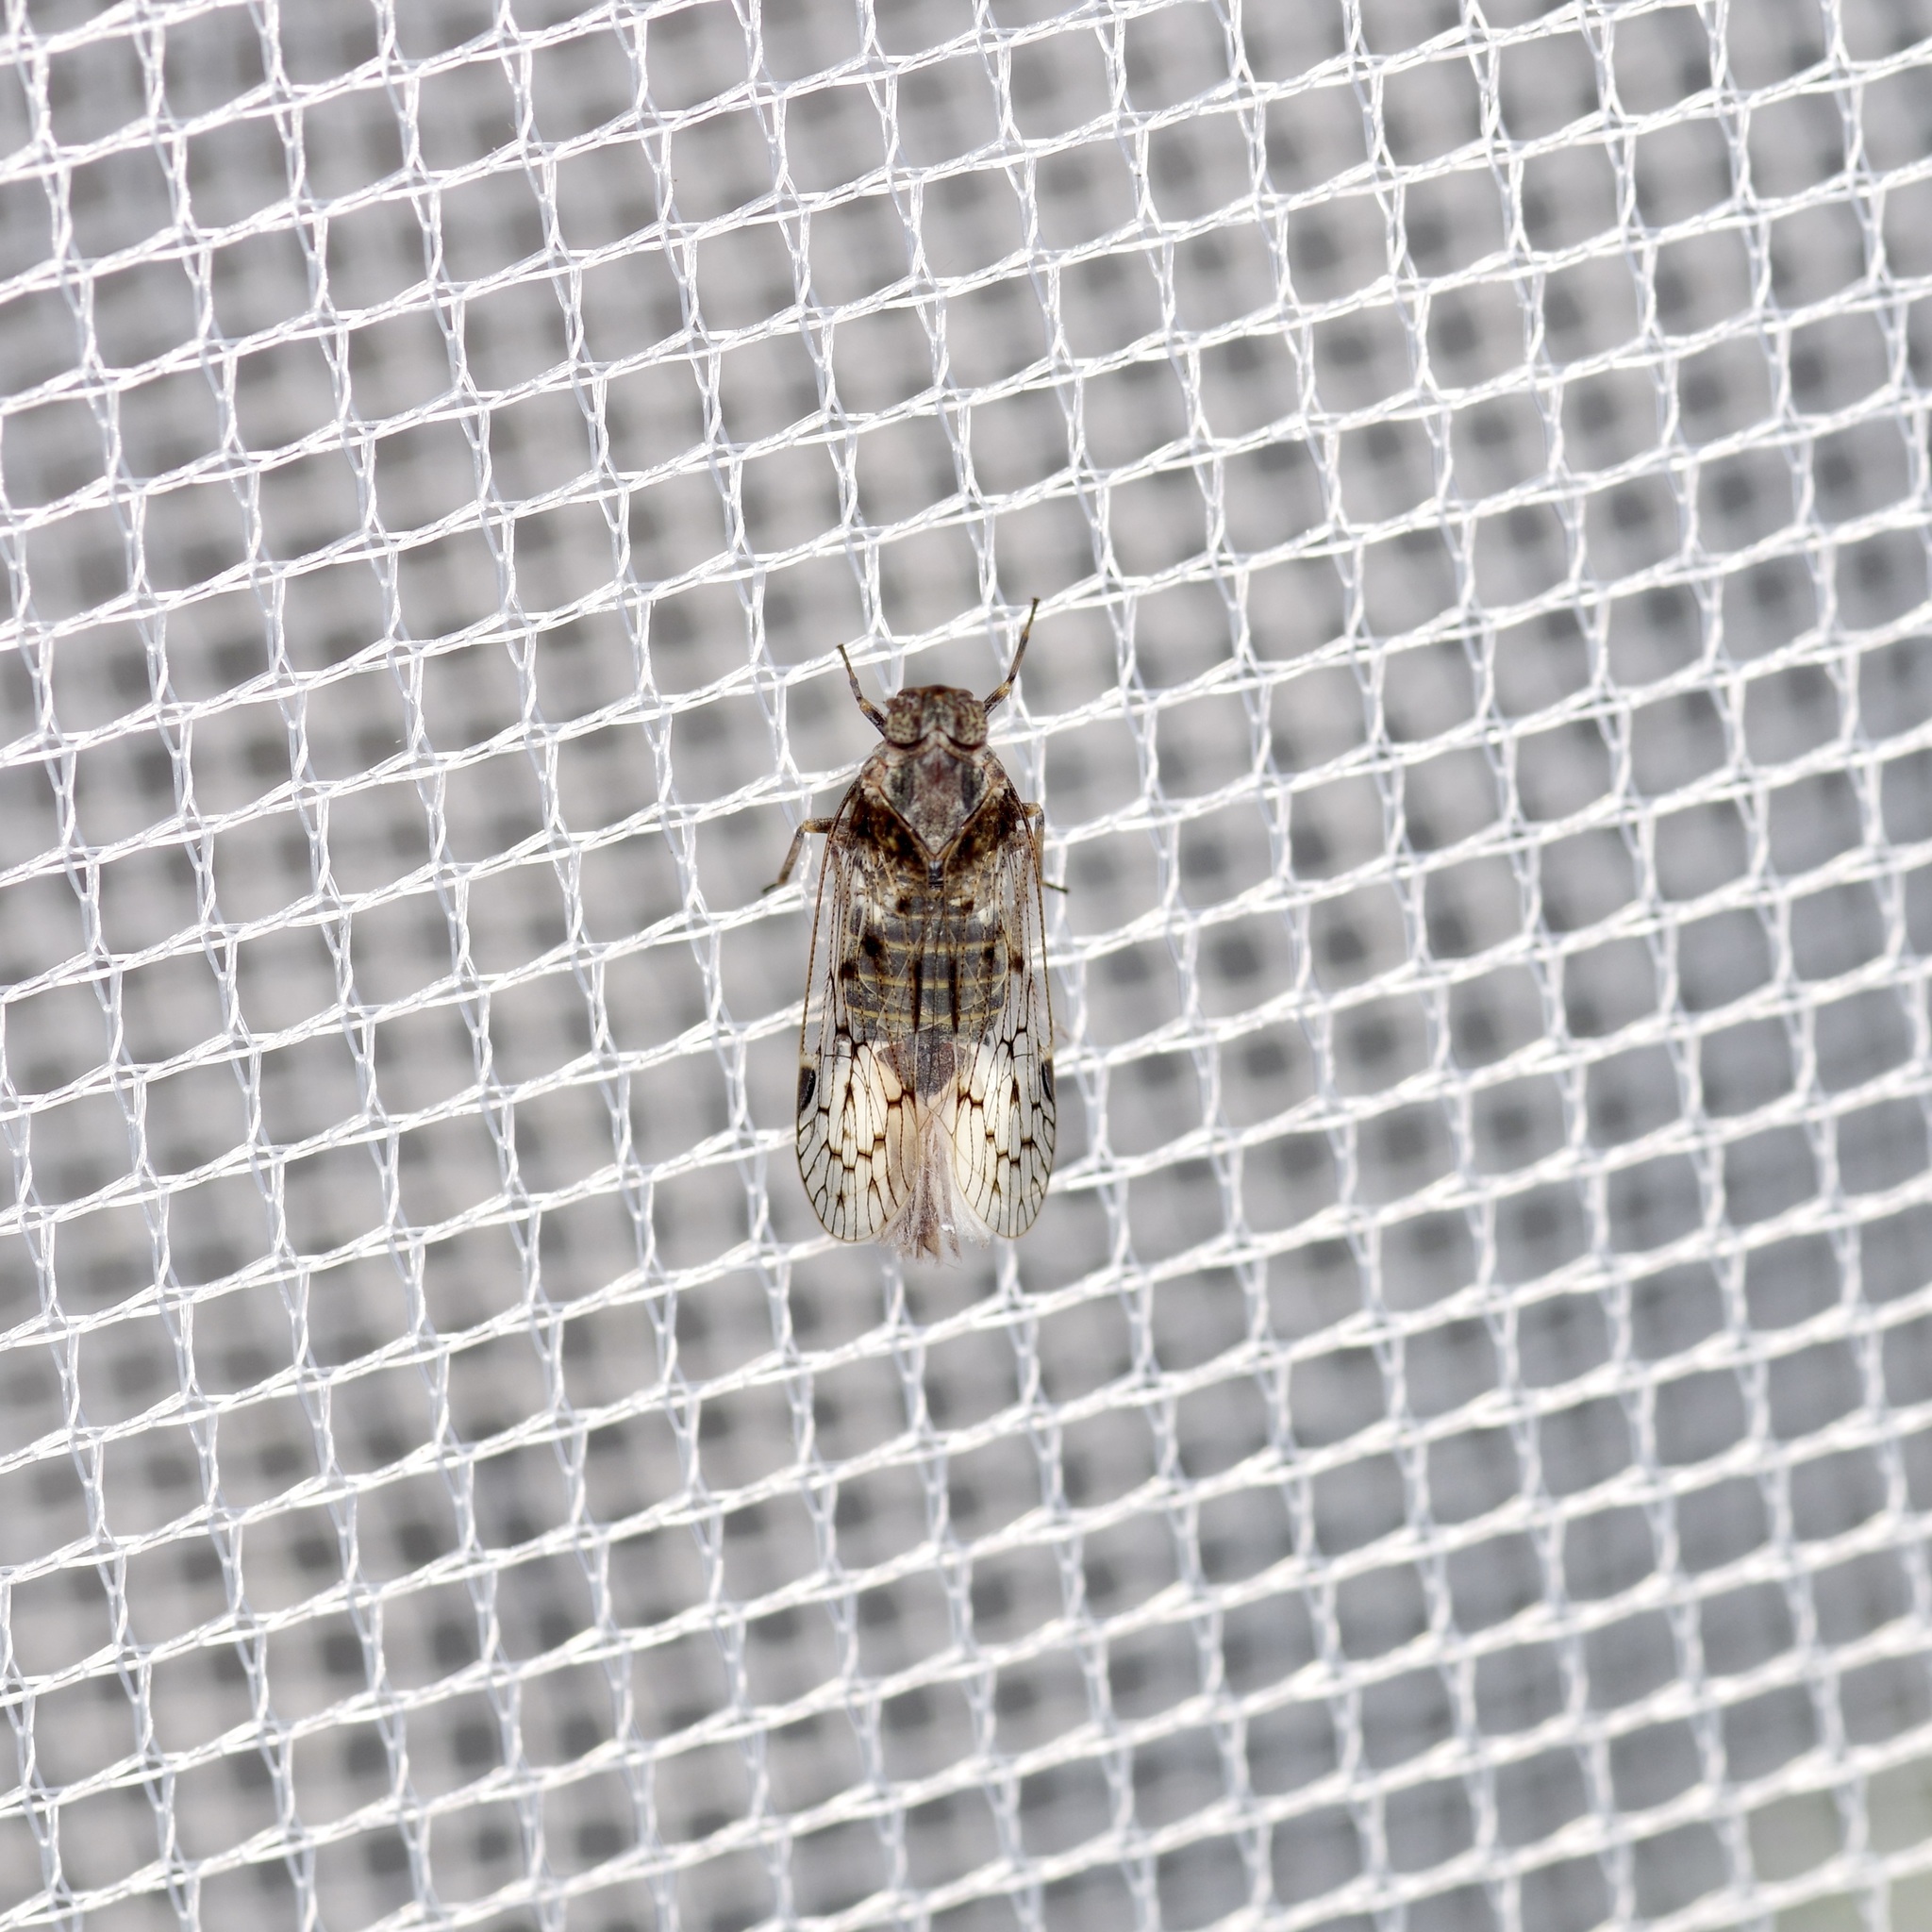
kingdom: Animalia
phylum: Arthropoda
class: Insecta
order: Hemiptera
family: Cixiidae
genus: Melanoliarus
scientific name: Melanoliarus aridus
